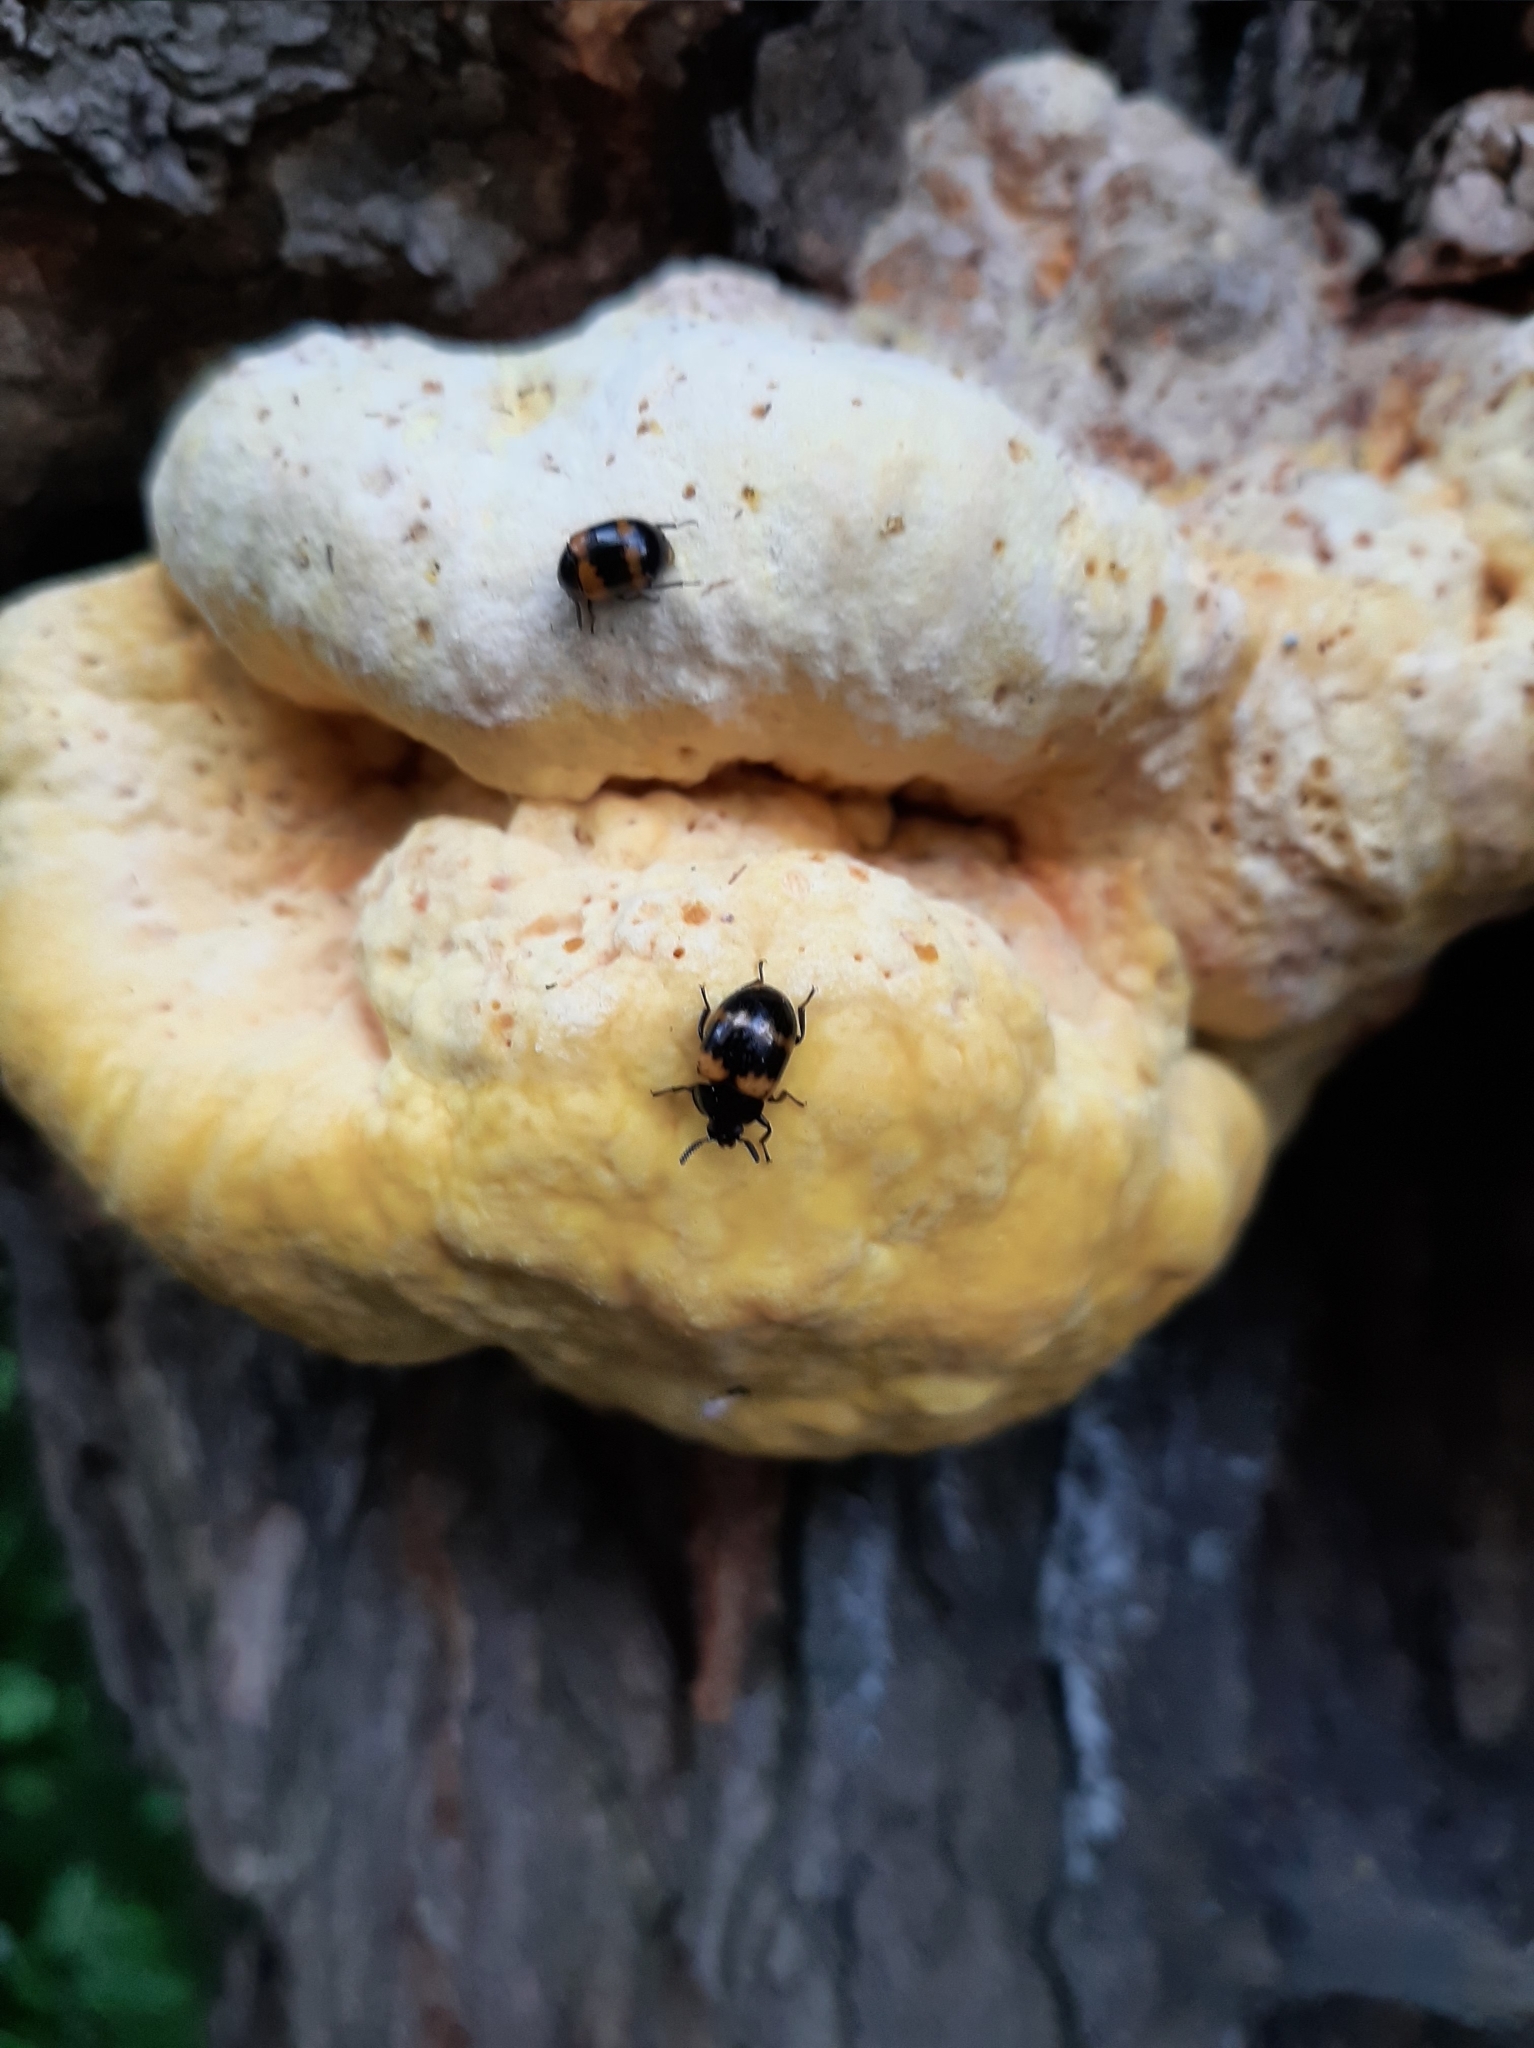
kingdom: Animalia
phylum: Arthropoda
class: Insecta
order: Coleoptera
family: Tenebrionidae
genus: Diaperis
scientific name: Diaperis boleti
